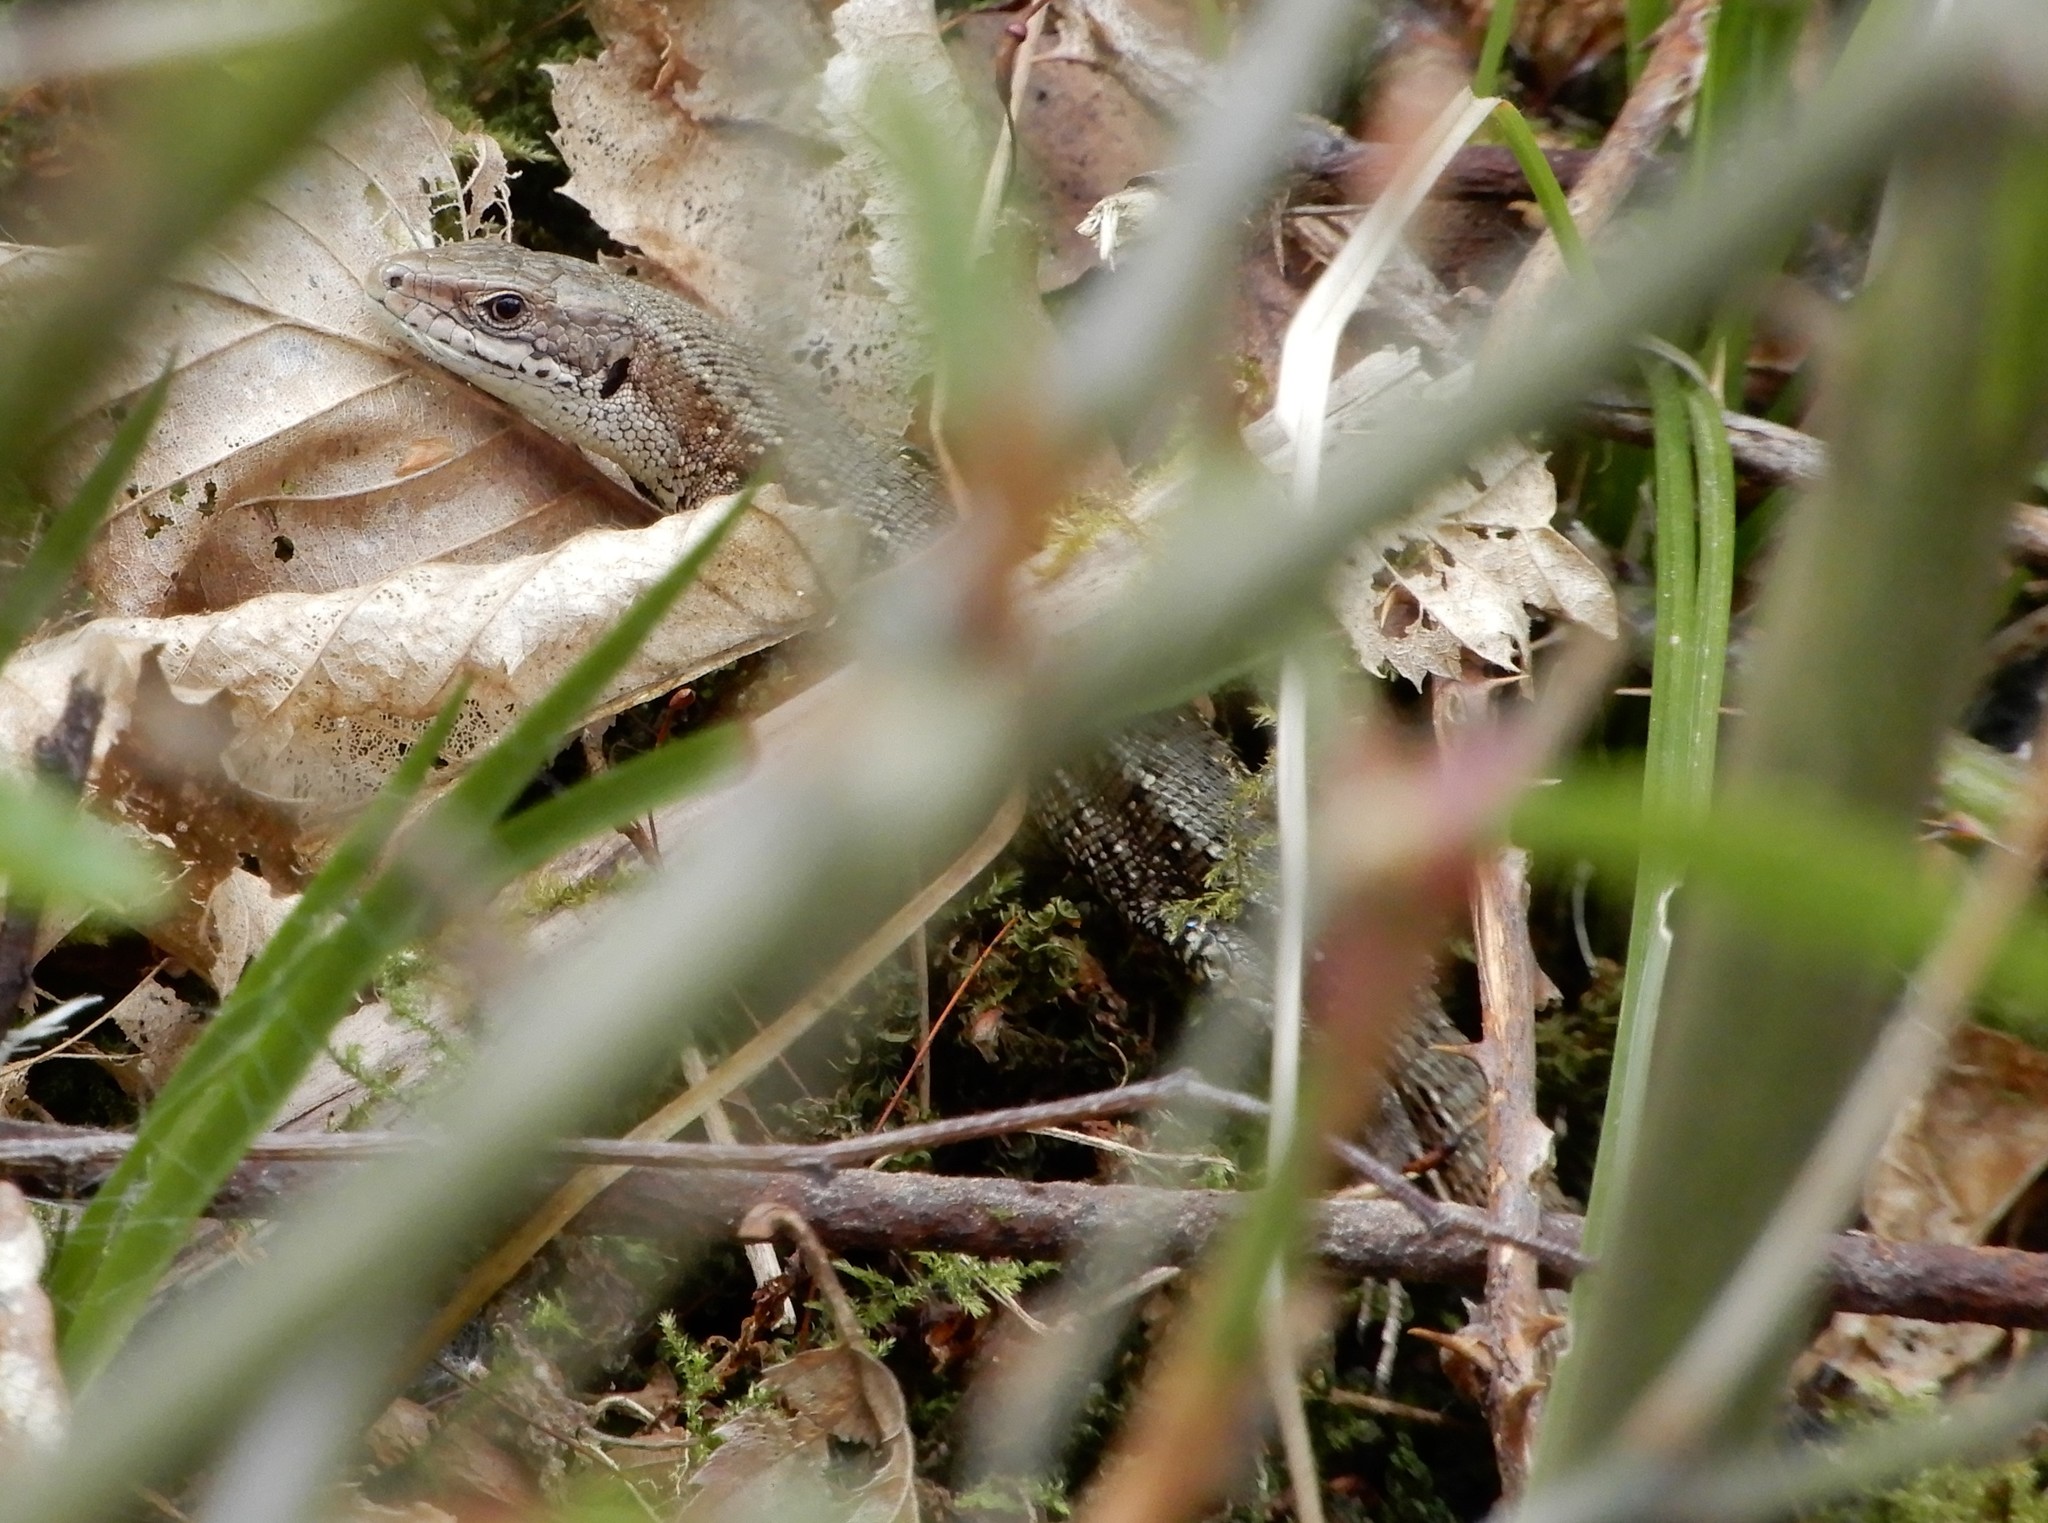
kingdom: Animalia
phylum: Chordata
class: Squamata
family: Lacertidae
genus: Zootoca
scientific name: Zootoca vivipara
